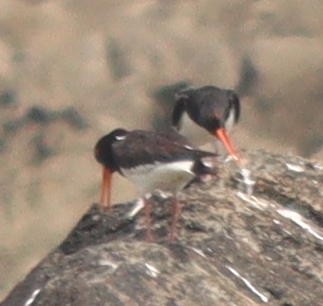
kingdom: Animalia
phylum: Chordata
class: Aves
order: Charadriiformes
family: Haematopodidae
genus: Haematopus
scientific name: Haematopus ostralegus
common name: Eurasian oystercatcher
